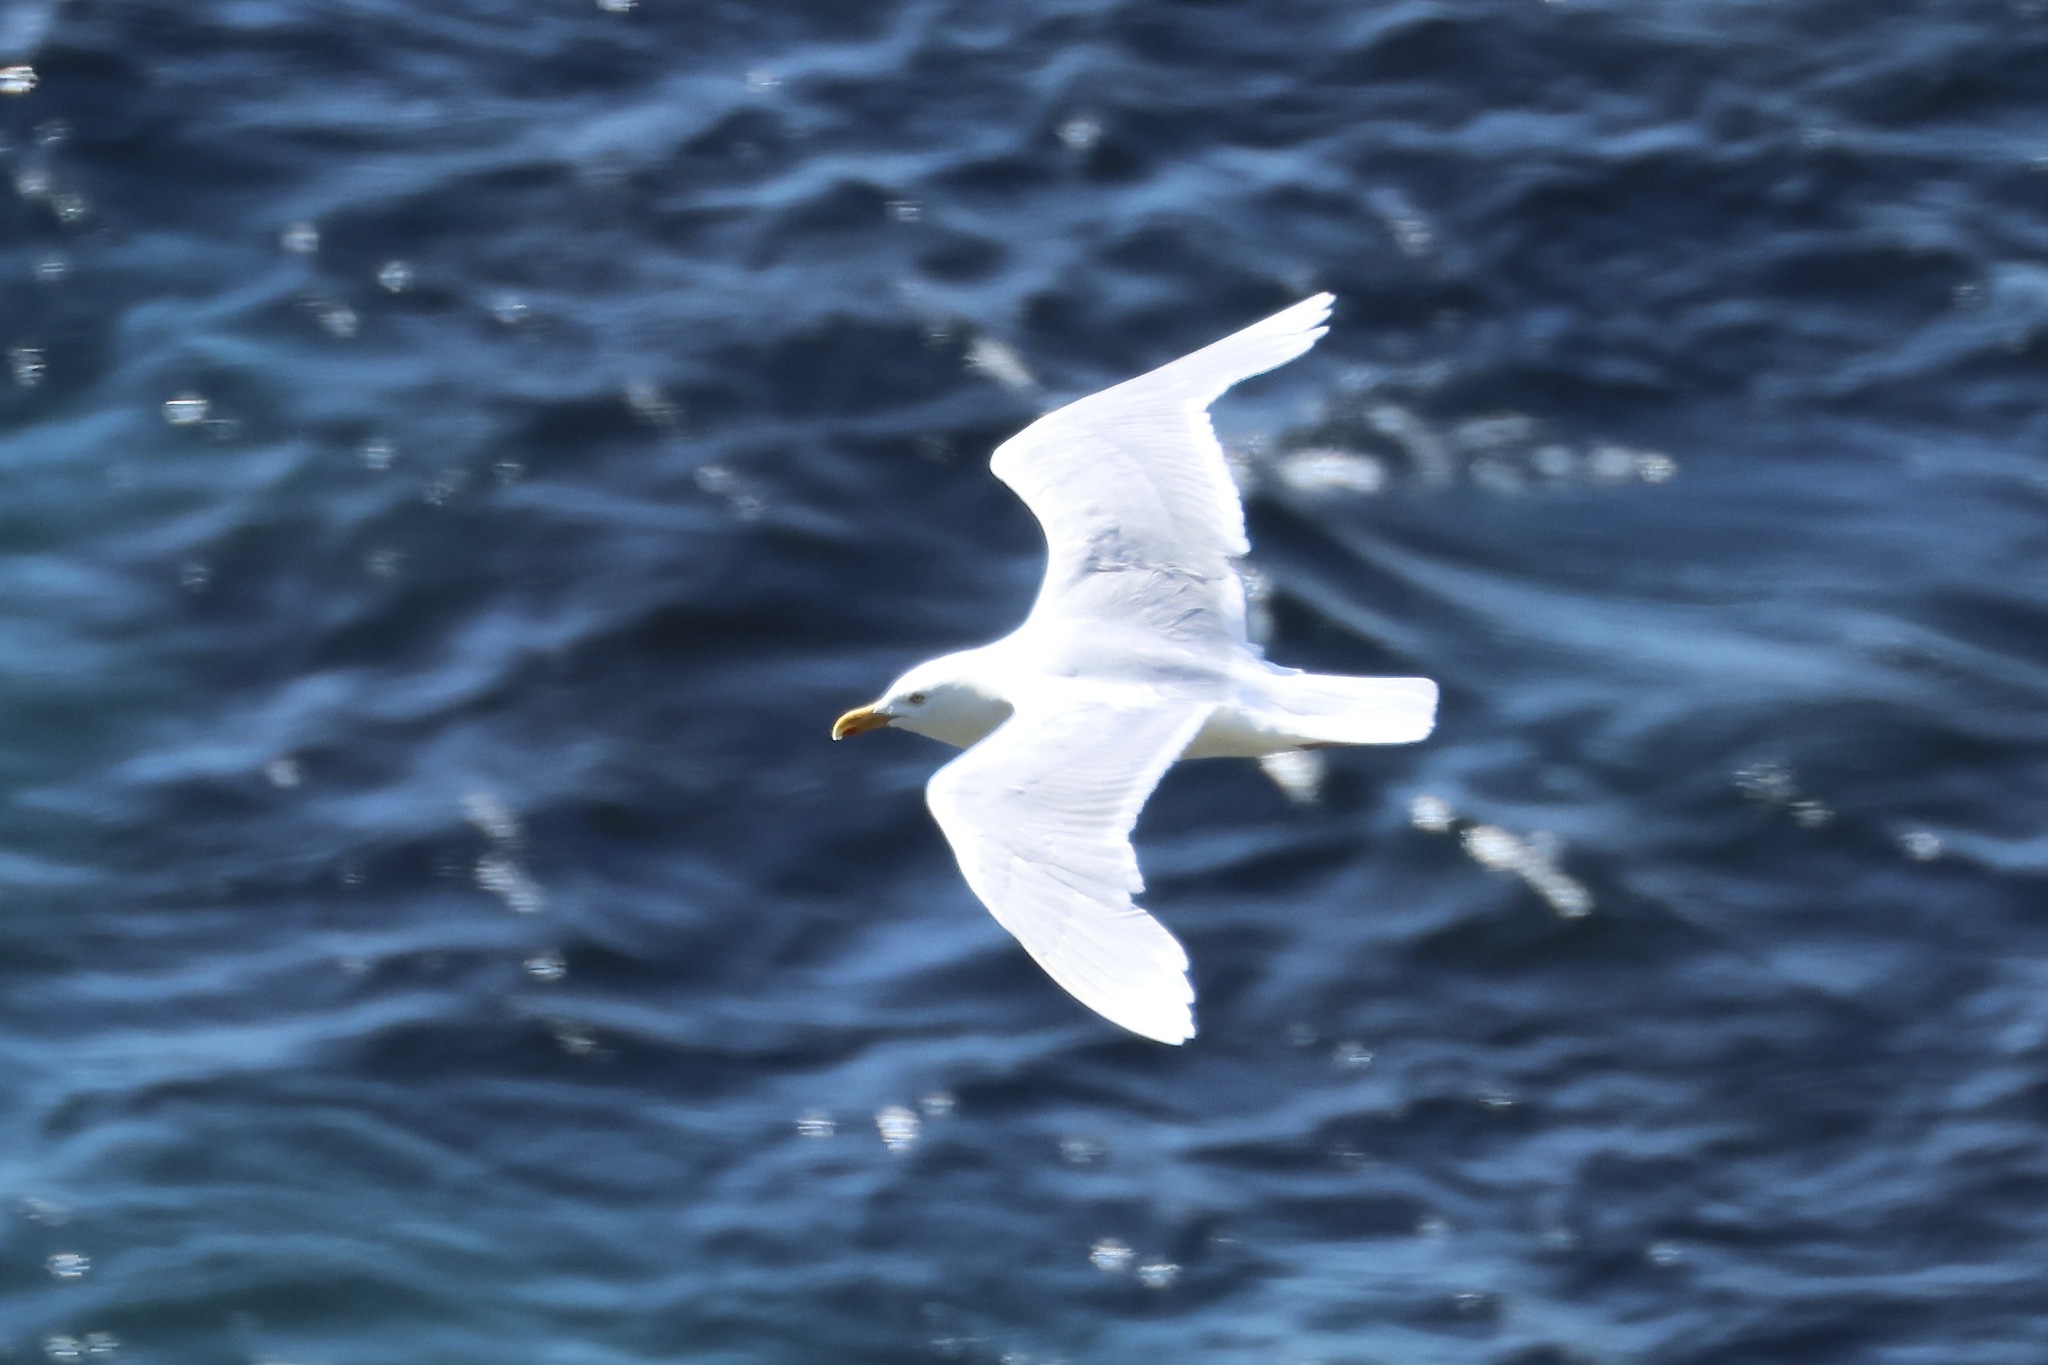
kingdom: Animalia
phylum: Chordata
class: Aves
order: Charadriiformes
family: Laridae
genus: Larus
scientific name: Larus hyperboreus
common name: Glaucous gull
